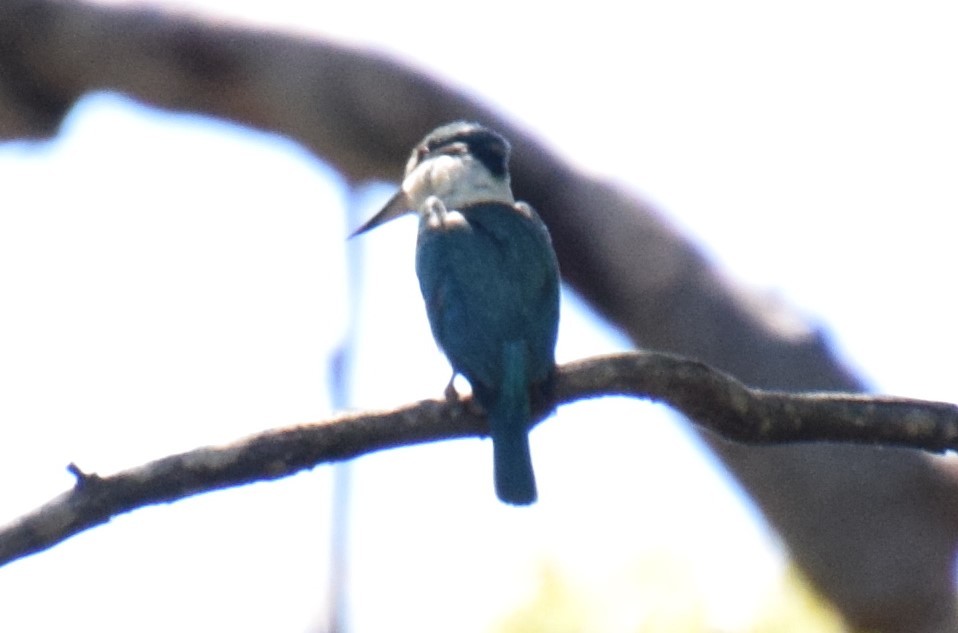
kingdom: Animalia
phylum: Chordata
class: Aves
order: Coraciiformes
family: Alcedinidae
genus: Todiramphus
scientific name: Todiramphus sanctus
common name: Sacred kingfisher
